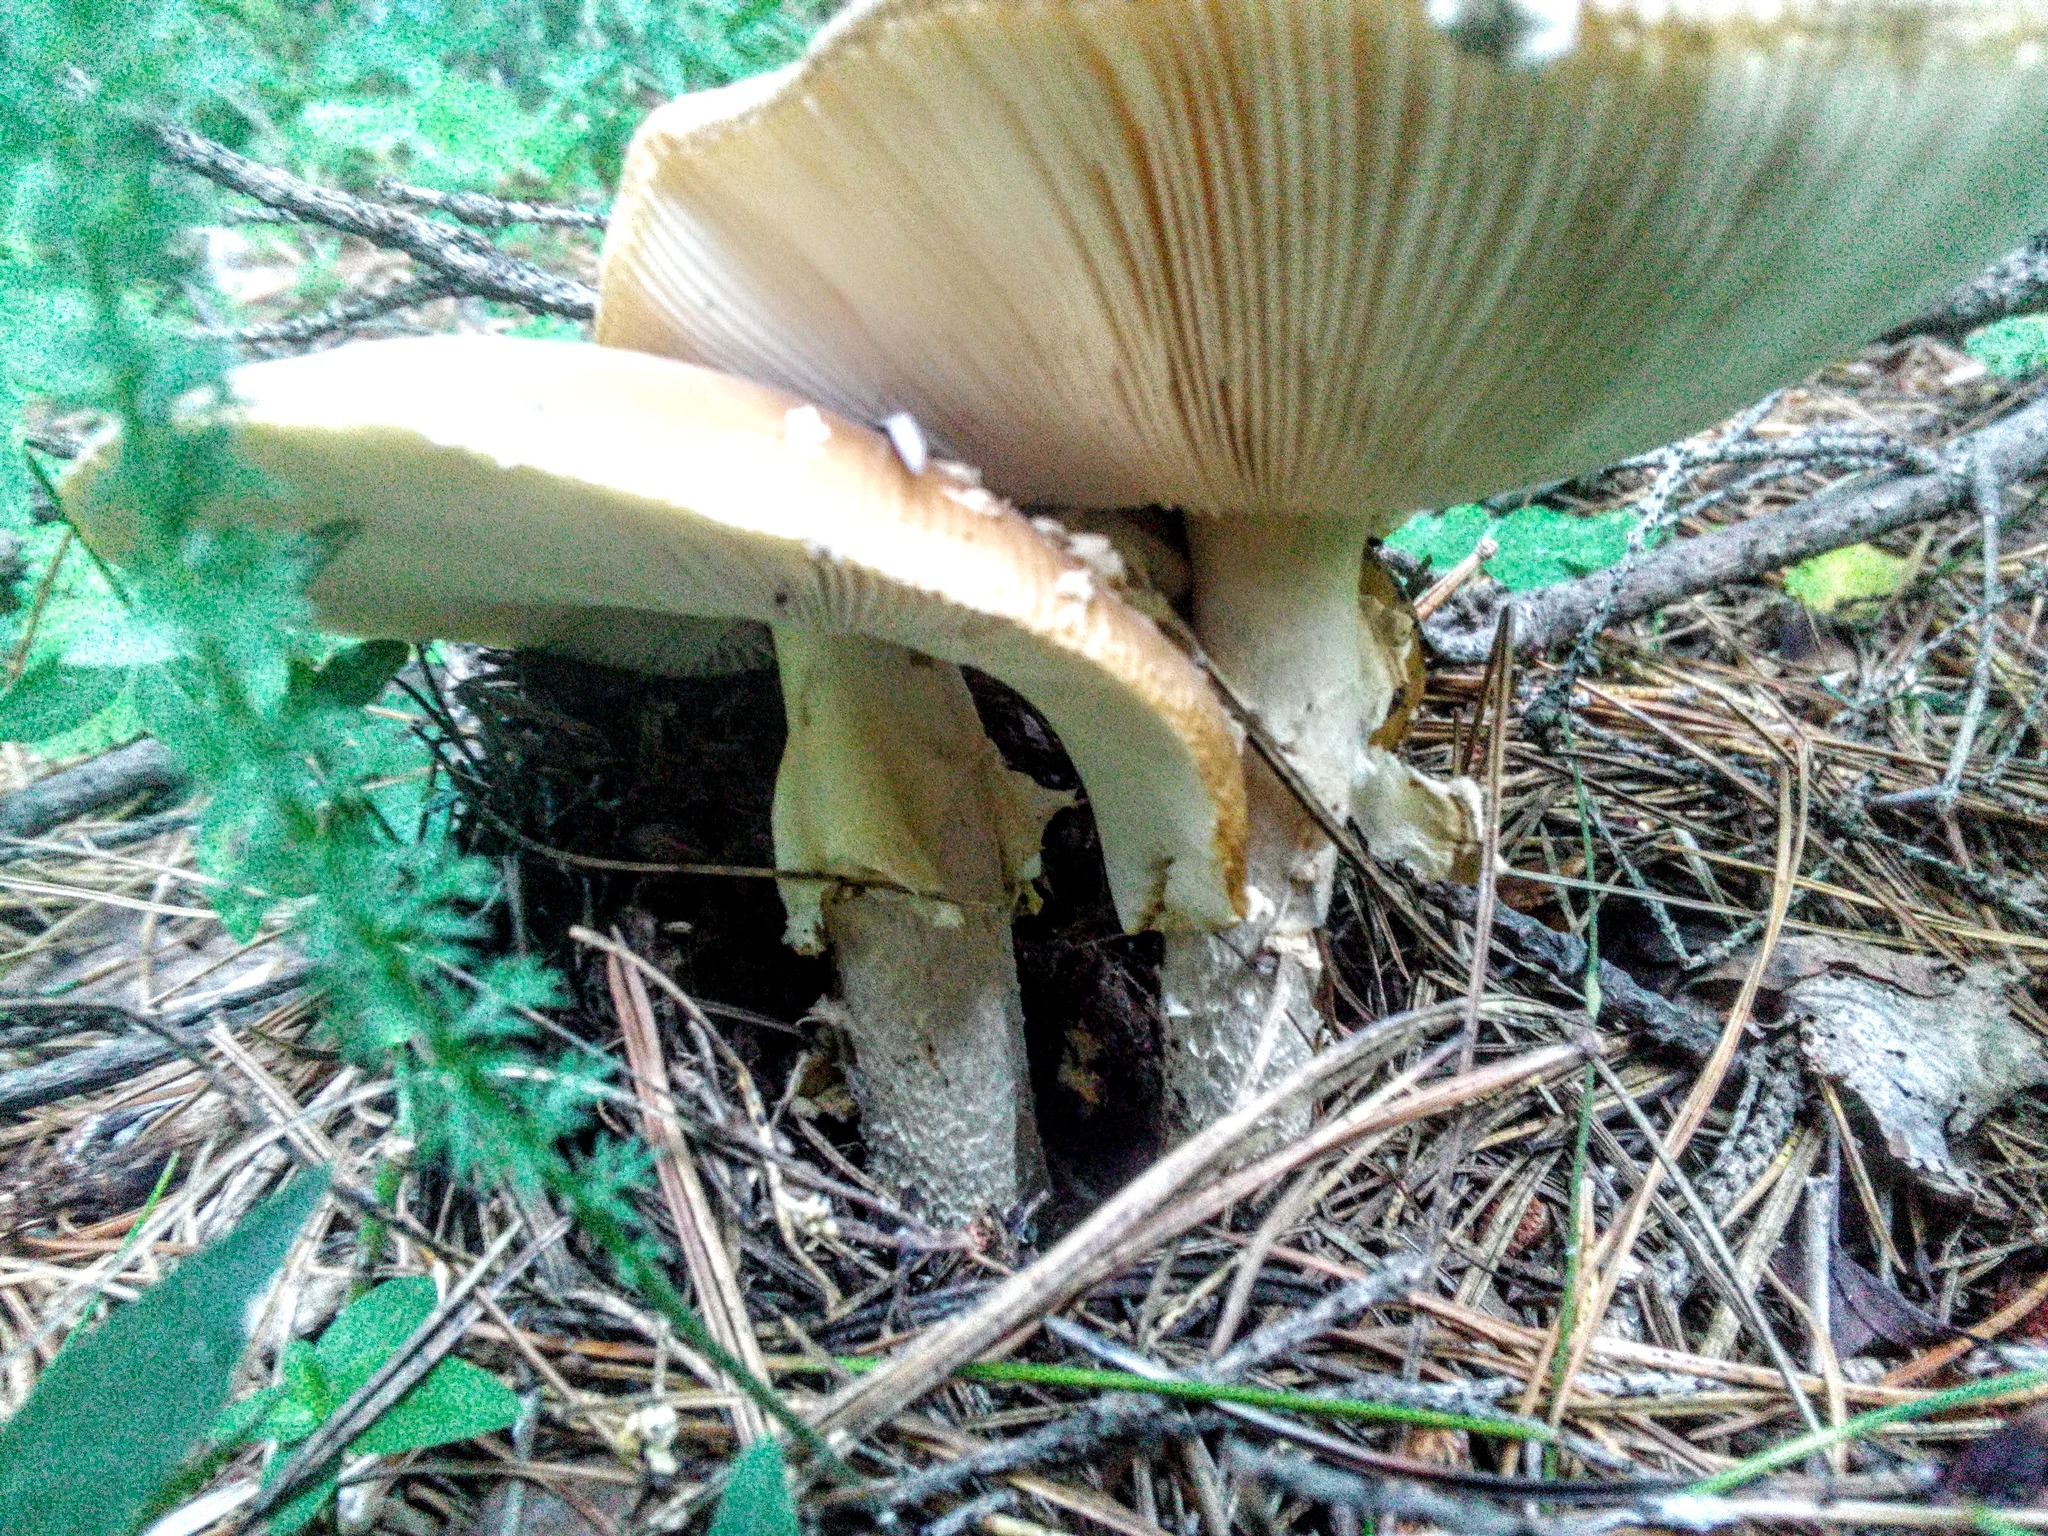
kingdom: Fungi
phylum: Basidiomycota
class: Agaricomycetes
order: Agaricales
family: Amanitaceae
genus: Amanita
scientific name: Amanita regalis
